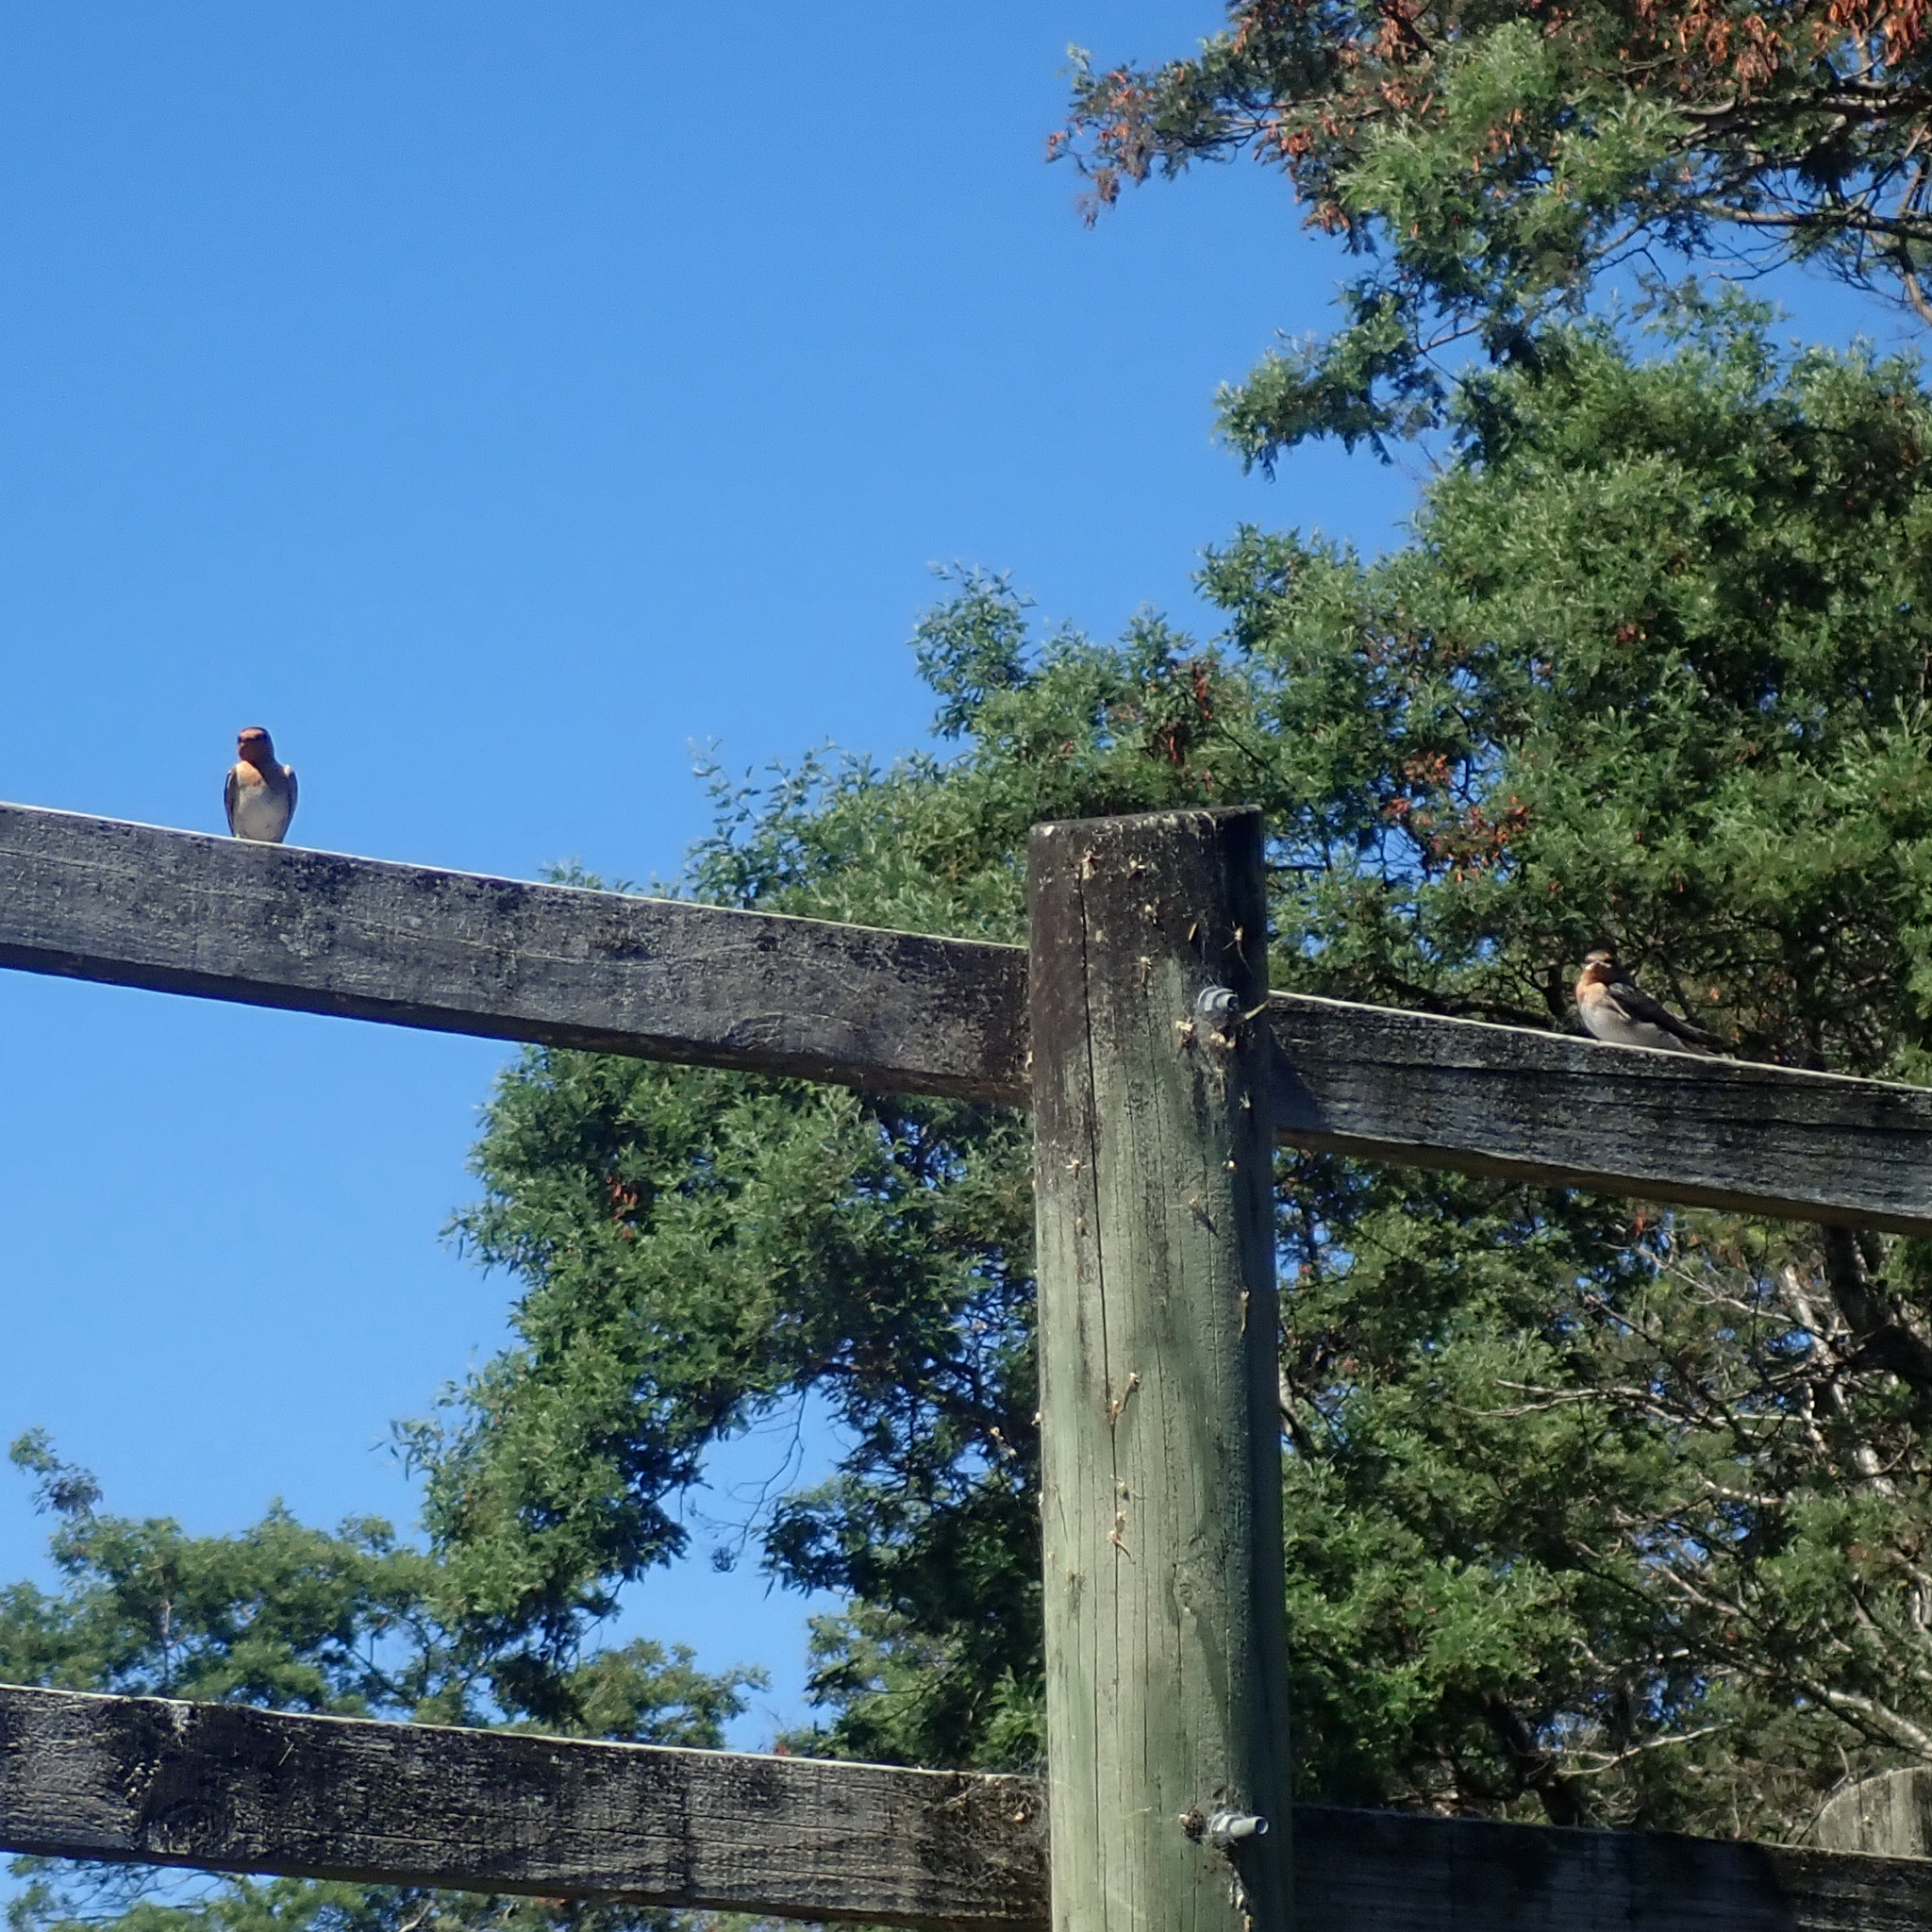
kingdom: Animalia
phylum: Chordata
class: Aves
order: Passeriformes
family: Hirundinidae
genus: Hirundo
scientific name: Hirundo neoxena
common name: Welcome swallow
